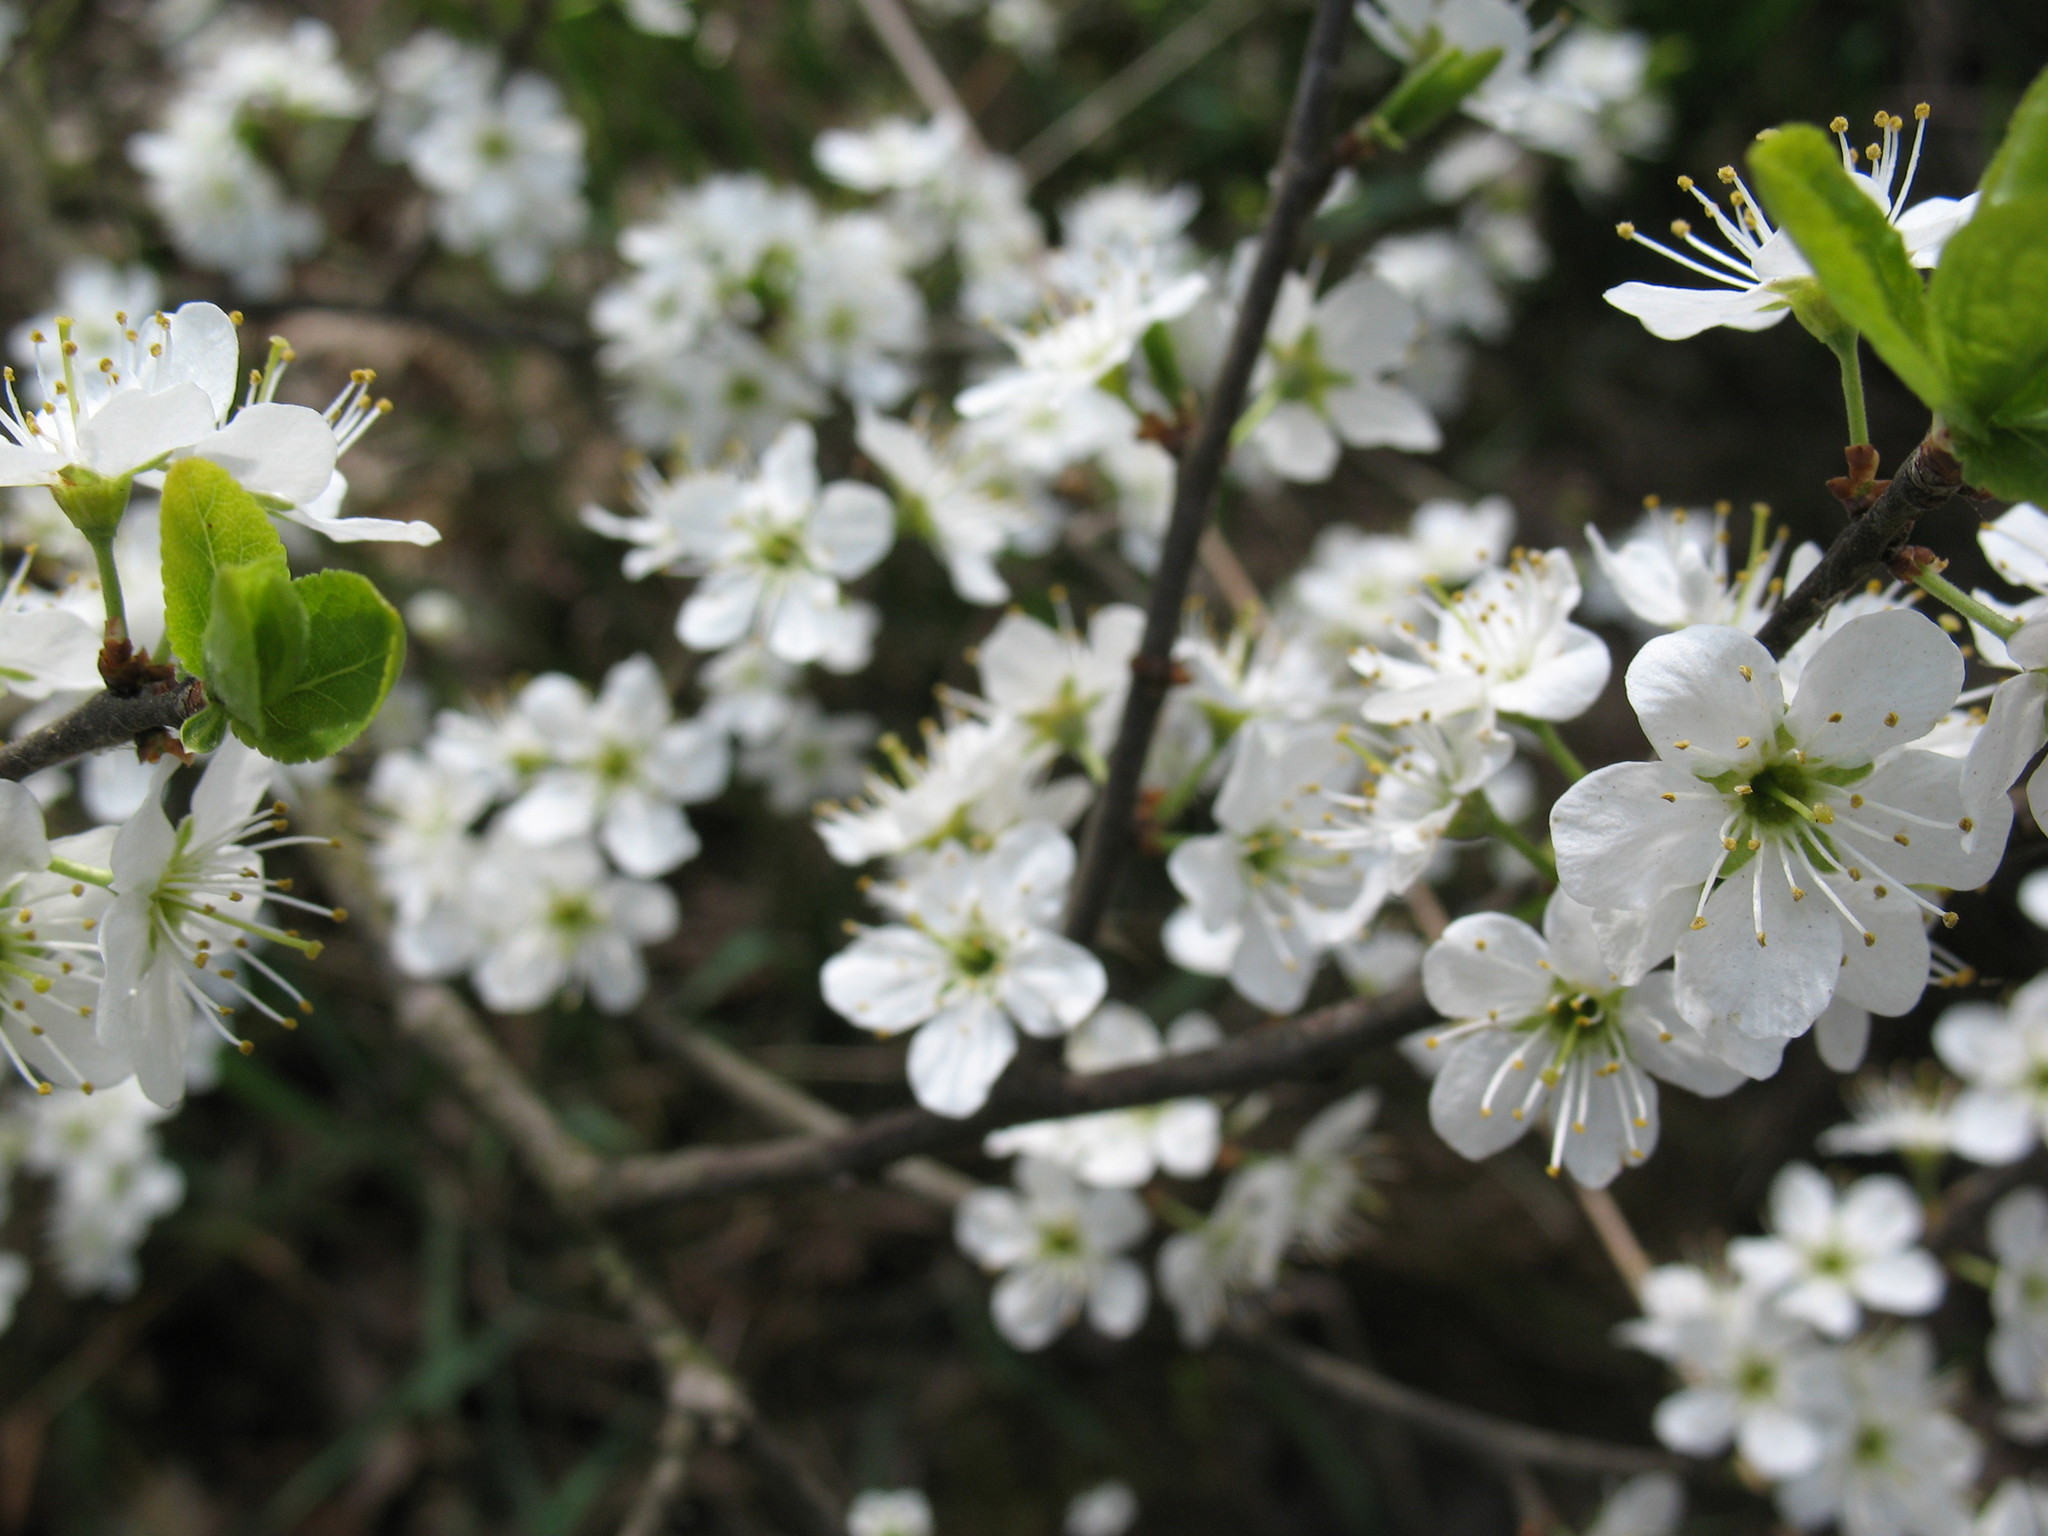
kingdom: Plantae
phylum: Tracheophyta
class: Magnoliopsida
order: Rosales
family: Rosaceae
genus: Prunus
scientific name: Prunus spinosa
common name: Blackthorn
